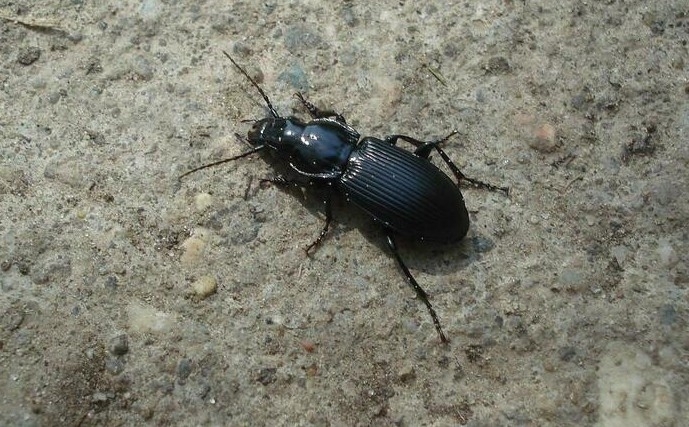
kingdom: Animalia
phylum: Arthropoda
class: Insecta
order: Coleoptera
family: Carabidae
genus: Pterostichus
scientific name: Pterostichus melanarius
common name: European dark harp ground beetle
